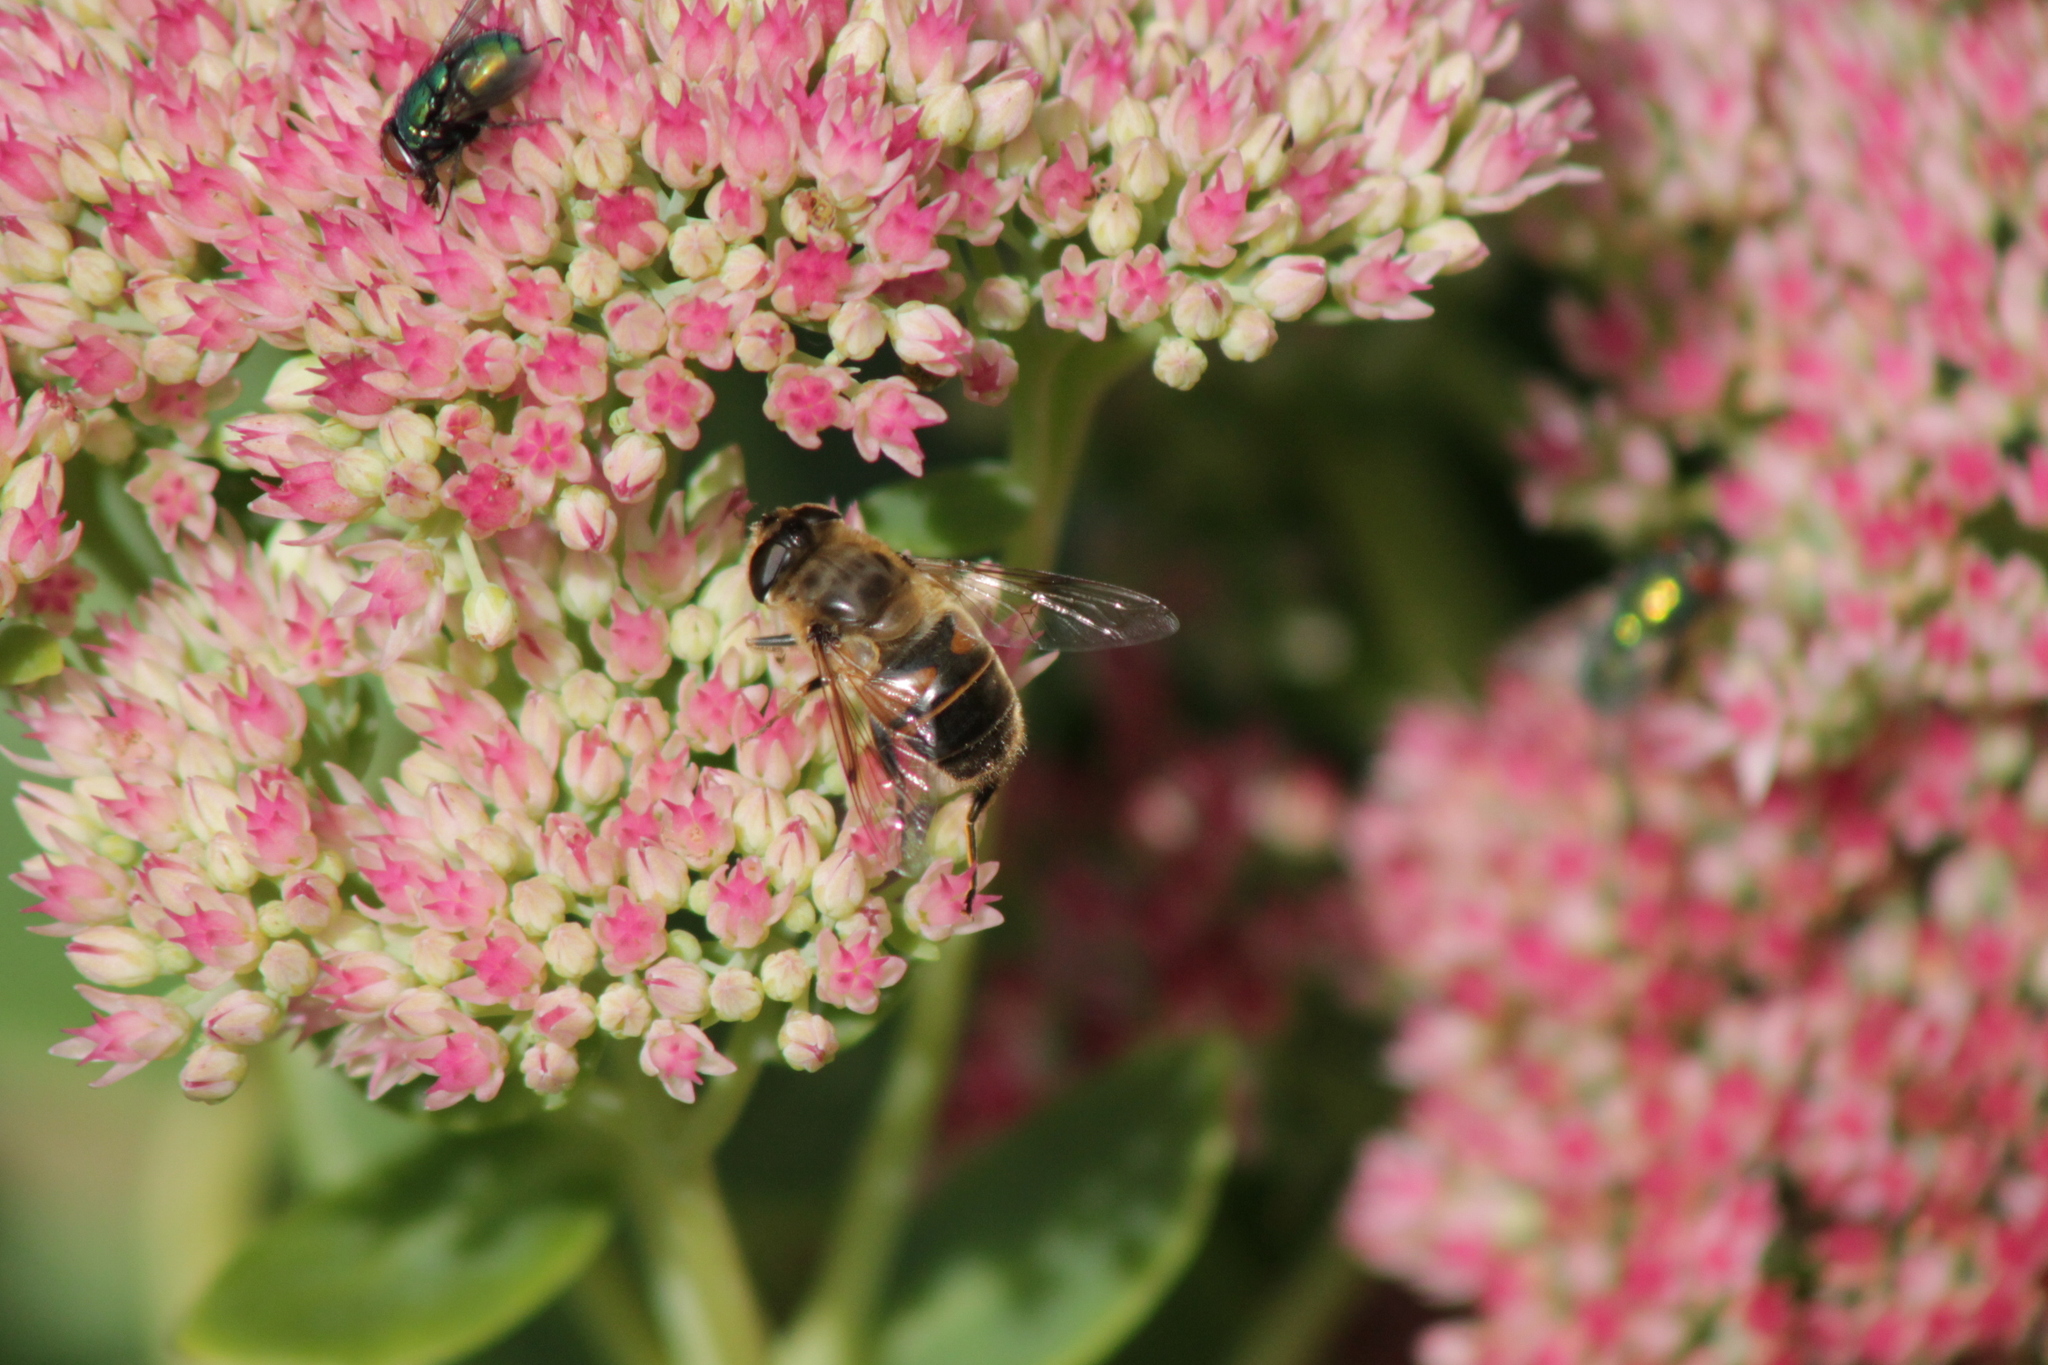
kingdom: Animalia
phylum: Arthropoda
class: Insecta
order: Diptera
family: Syrphidae
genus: Eristalis
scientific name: Eristalis tenax
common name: Drone fly
